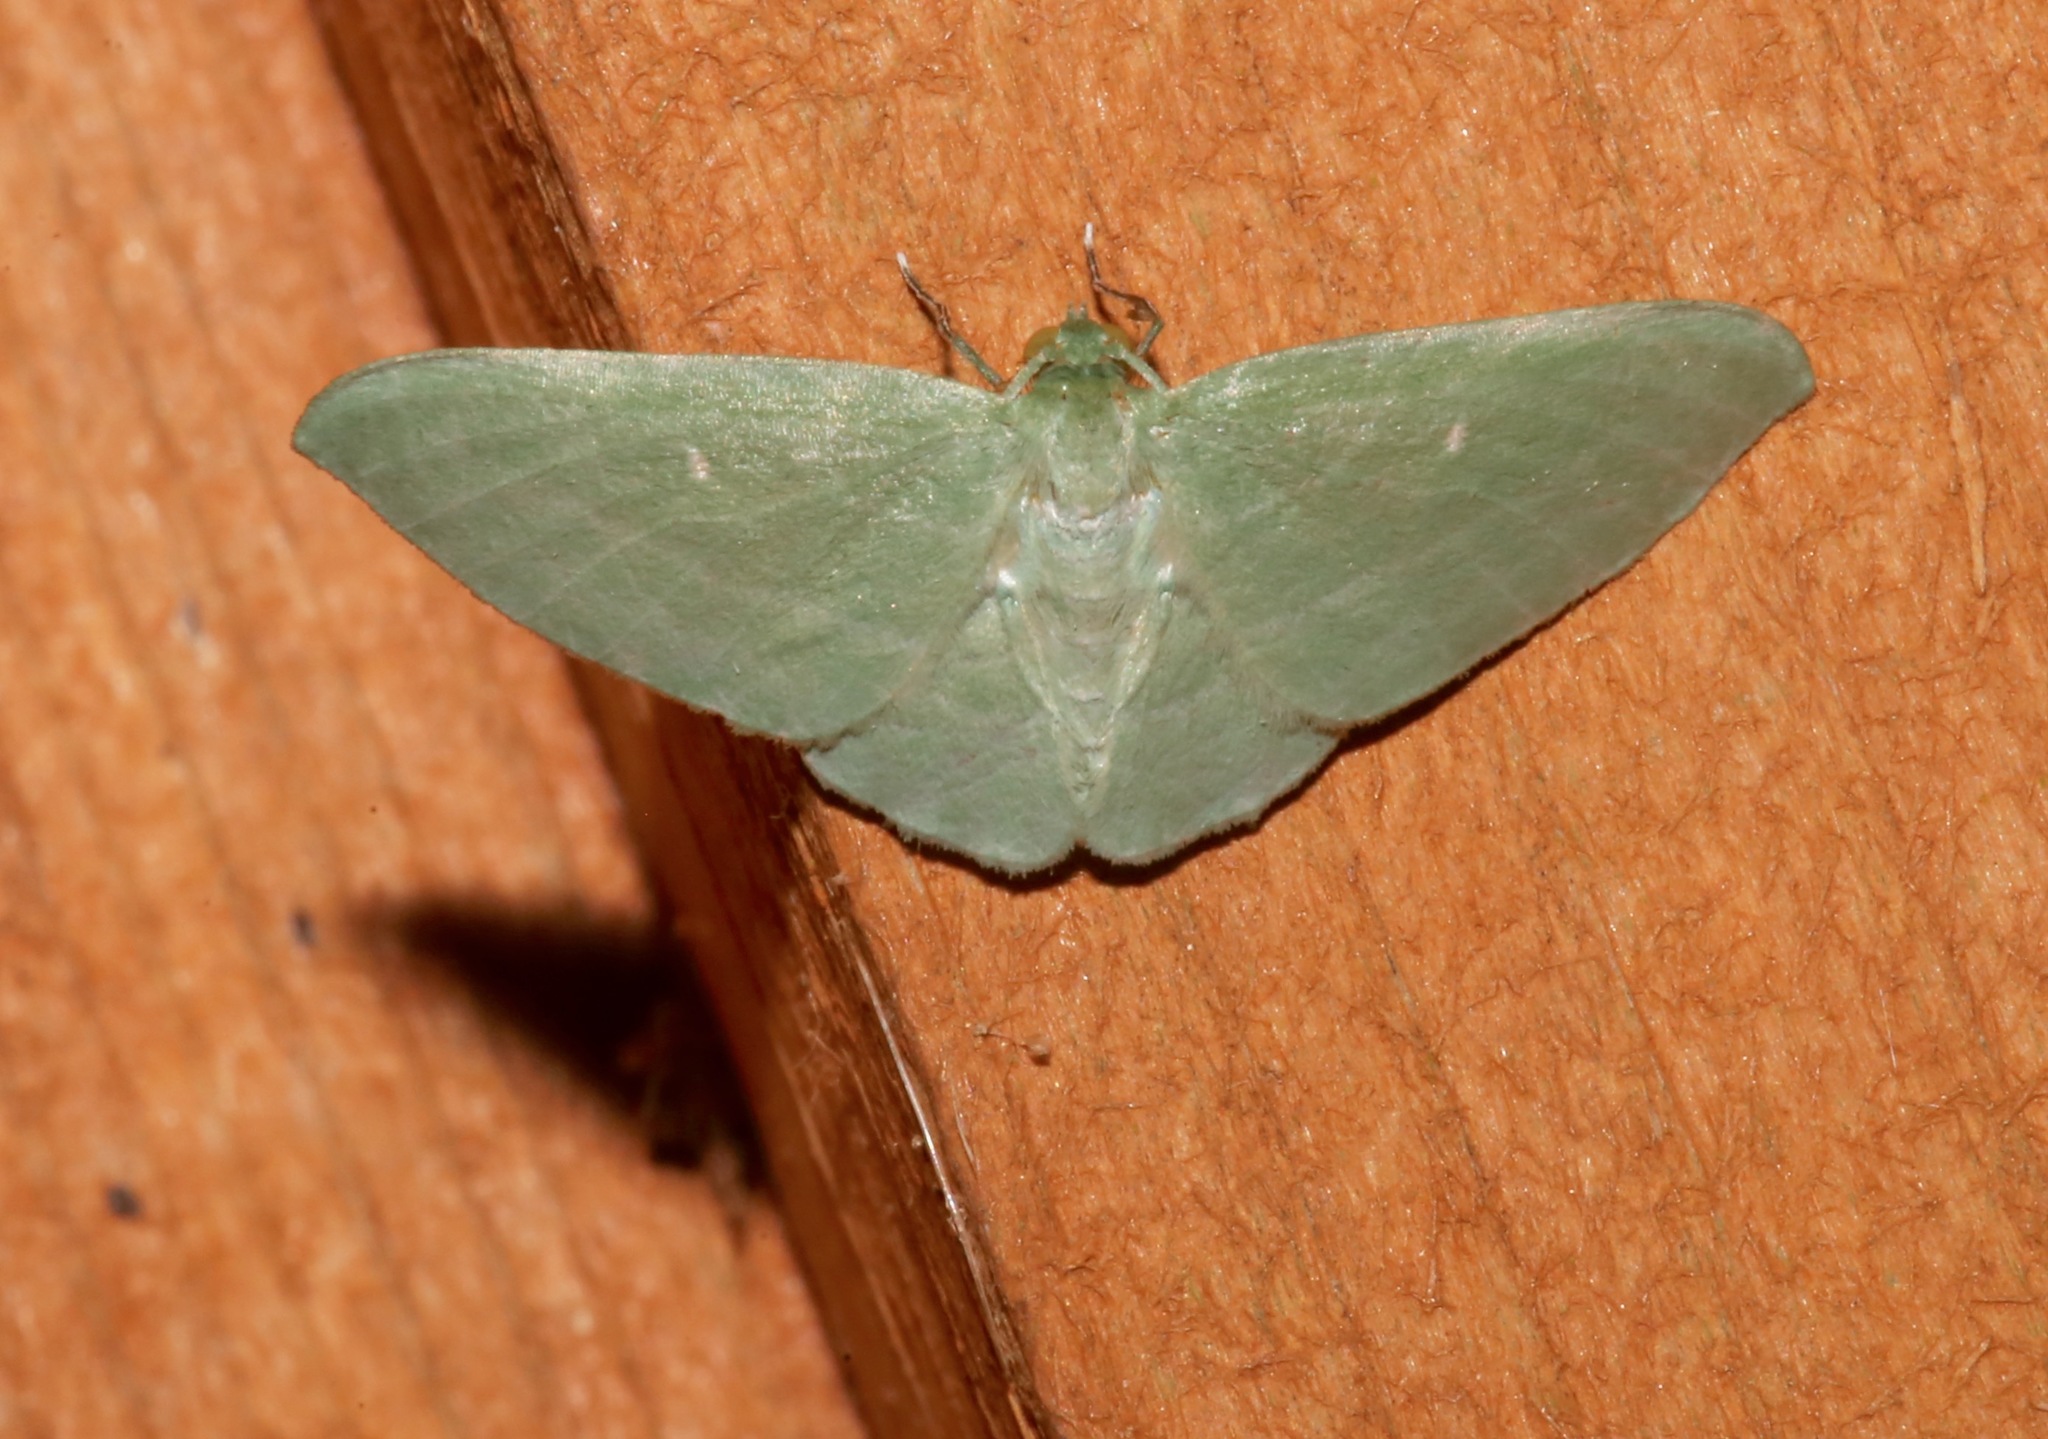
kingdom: Animalia
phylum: Arthropoda
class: Insecta
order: Lepidoptera
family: Geometridae
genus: Dyspteris
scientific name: Dyspteris abortivaria
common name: Bad-wing
